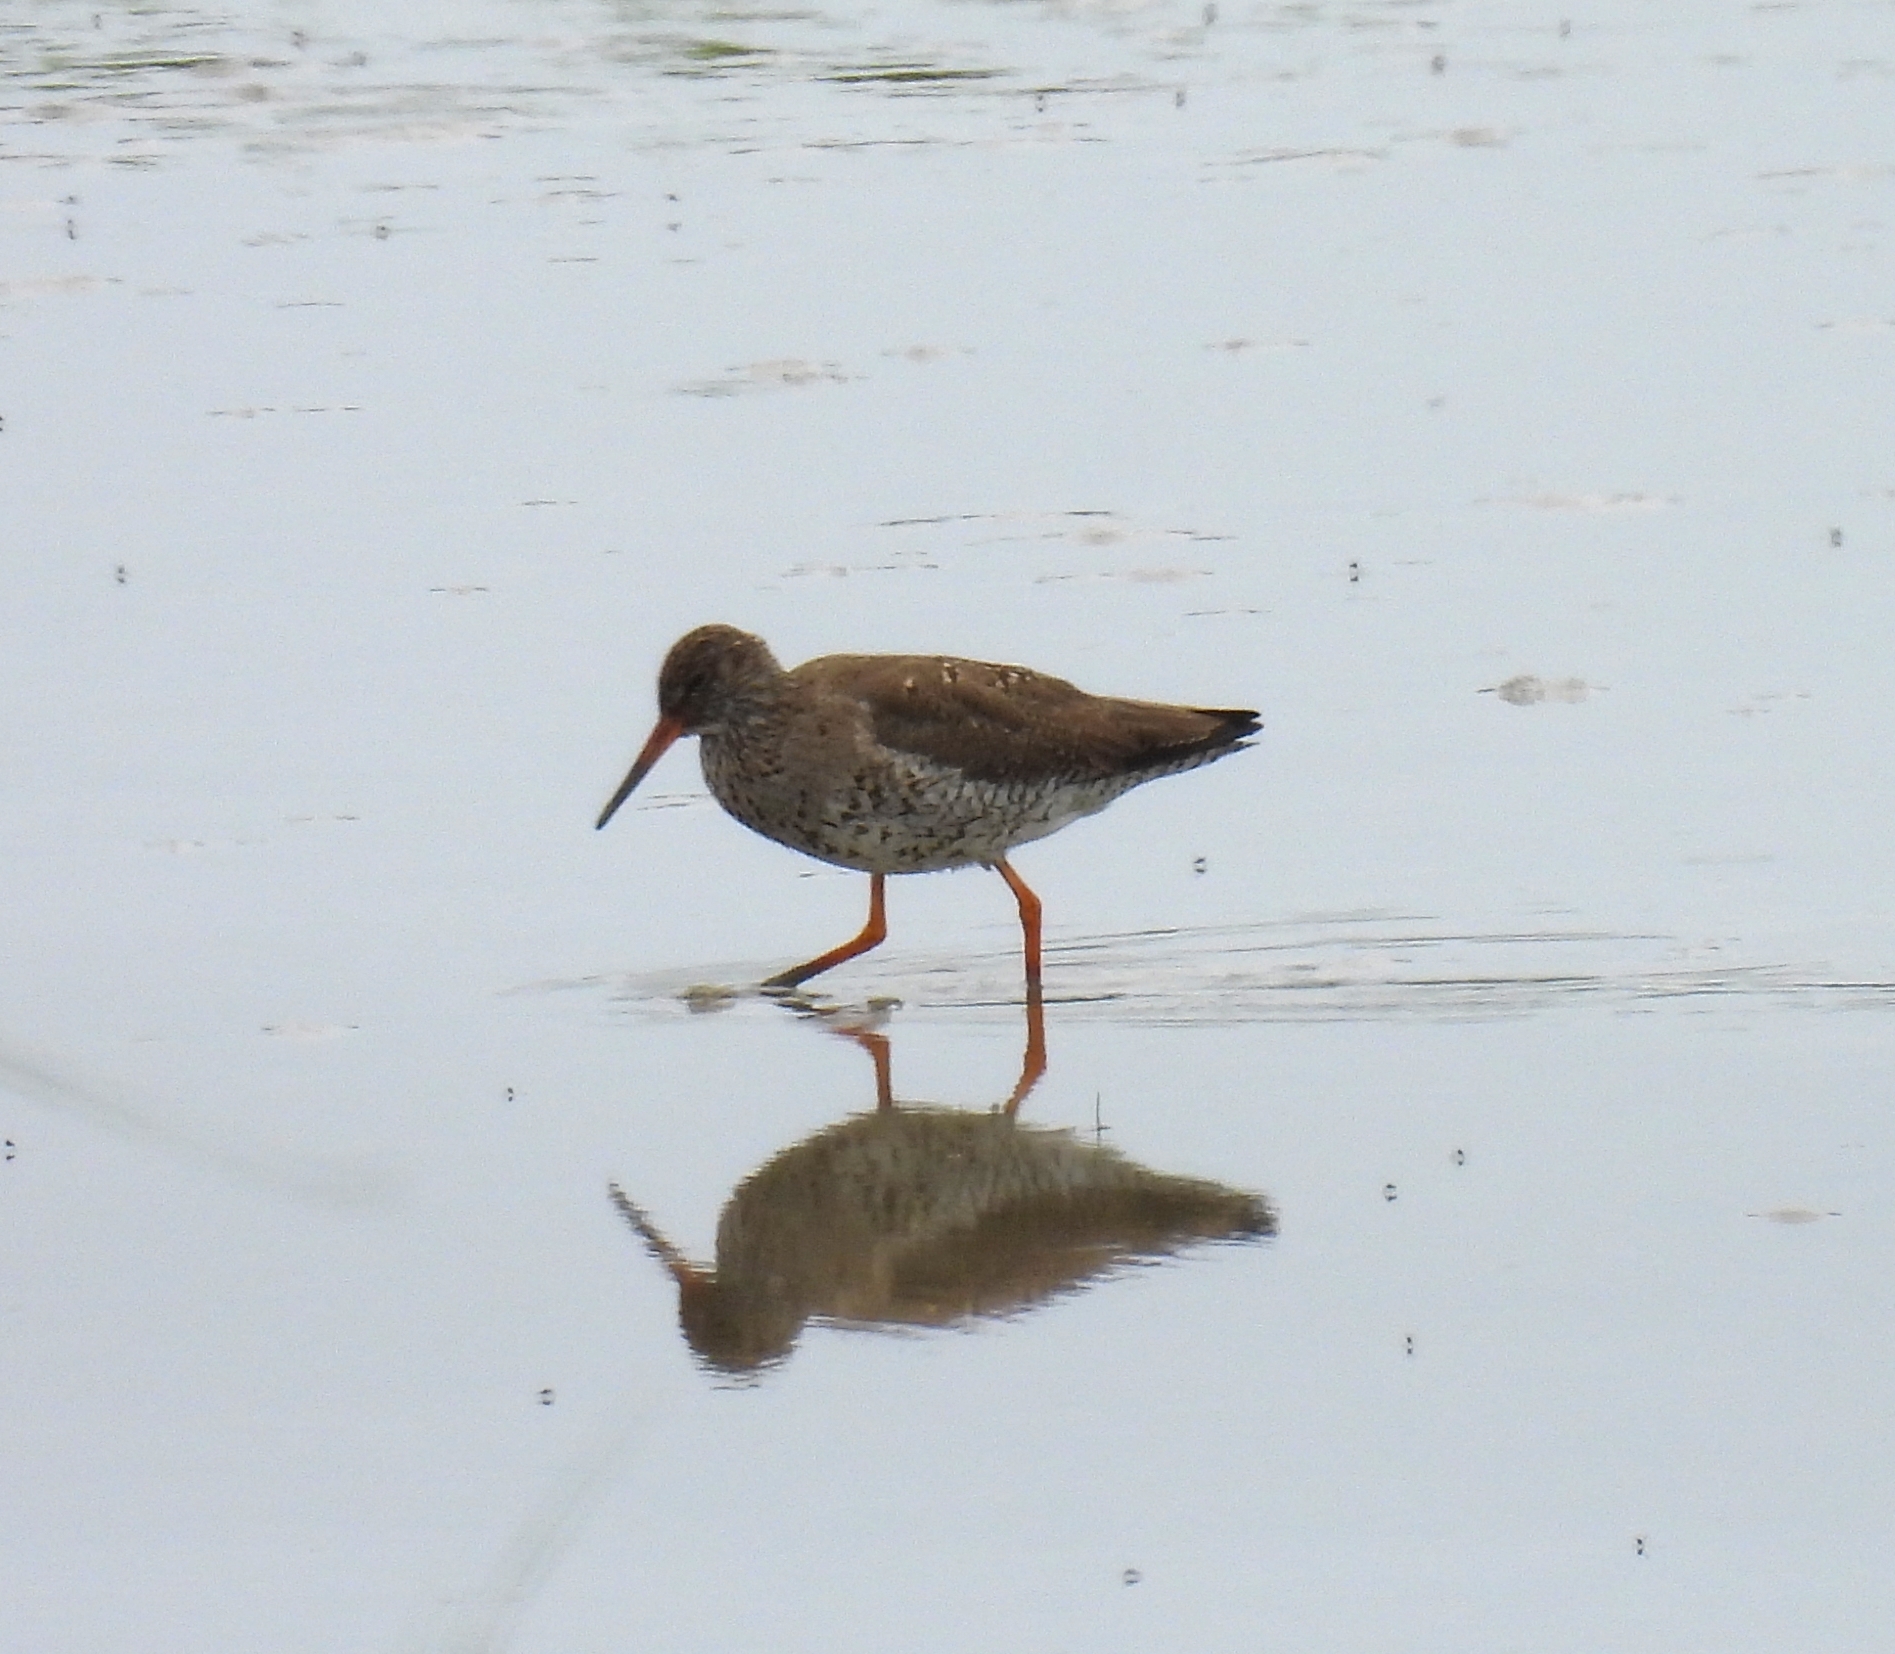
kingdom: Animalia
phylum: Chordata
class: Aves
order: Charadriiformes
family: Scolopacidae
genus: Tringa
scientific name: Tringa totanus
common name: Common redshank
